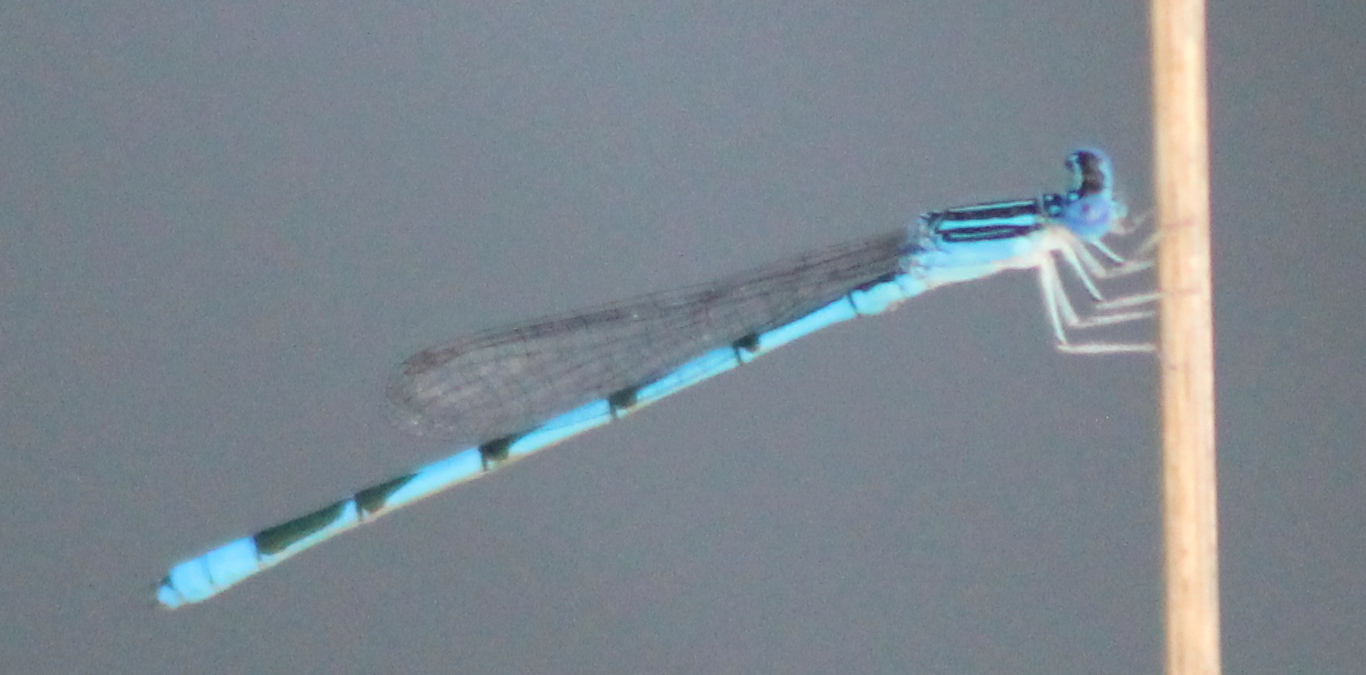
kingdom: Animalia
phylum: Arthropoda
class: Insecta
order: Odonata
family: Coenagrionidae
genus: Enallagma
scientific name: Enallagma basidens
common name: Double-striped bluet
